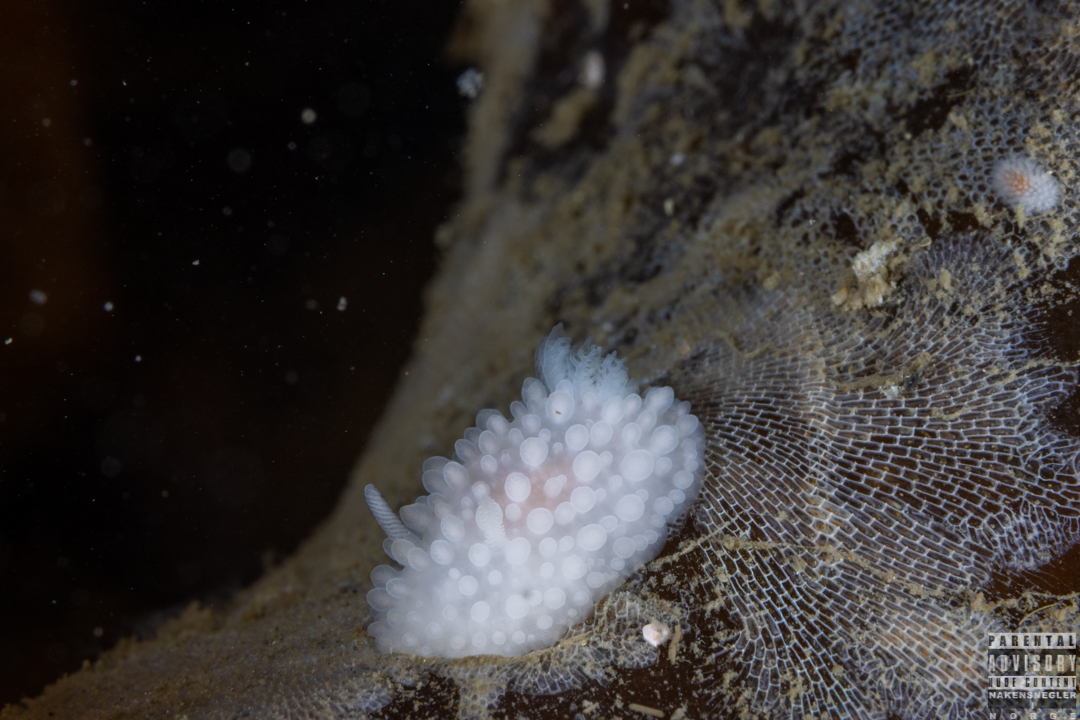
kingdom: Animalia
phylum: Mollusca
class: Gastropoda
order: Nudibranchia
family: Onchidorididae
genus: Adalaria
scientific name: Adalaria proxima
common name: False doris
